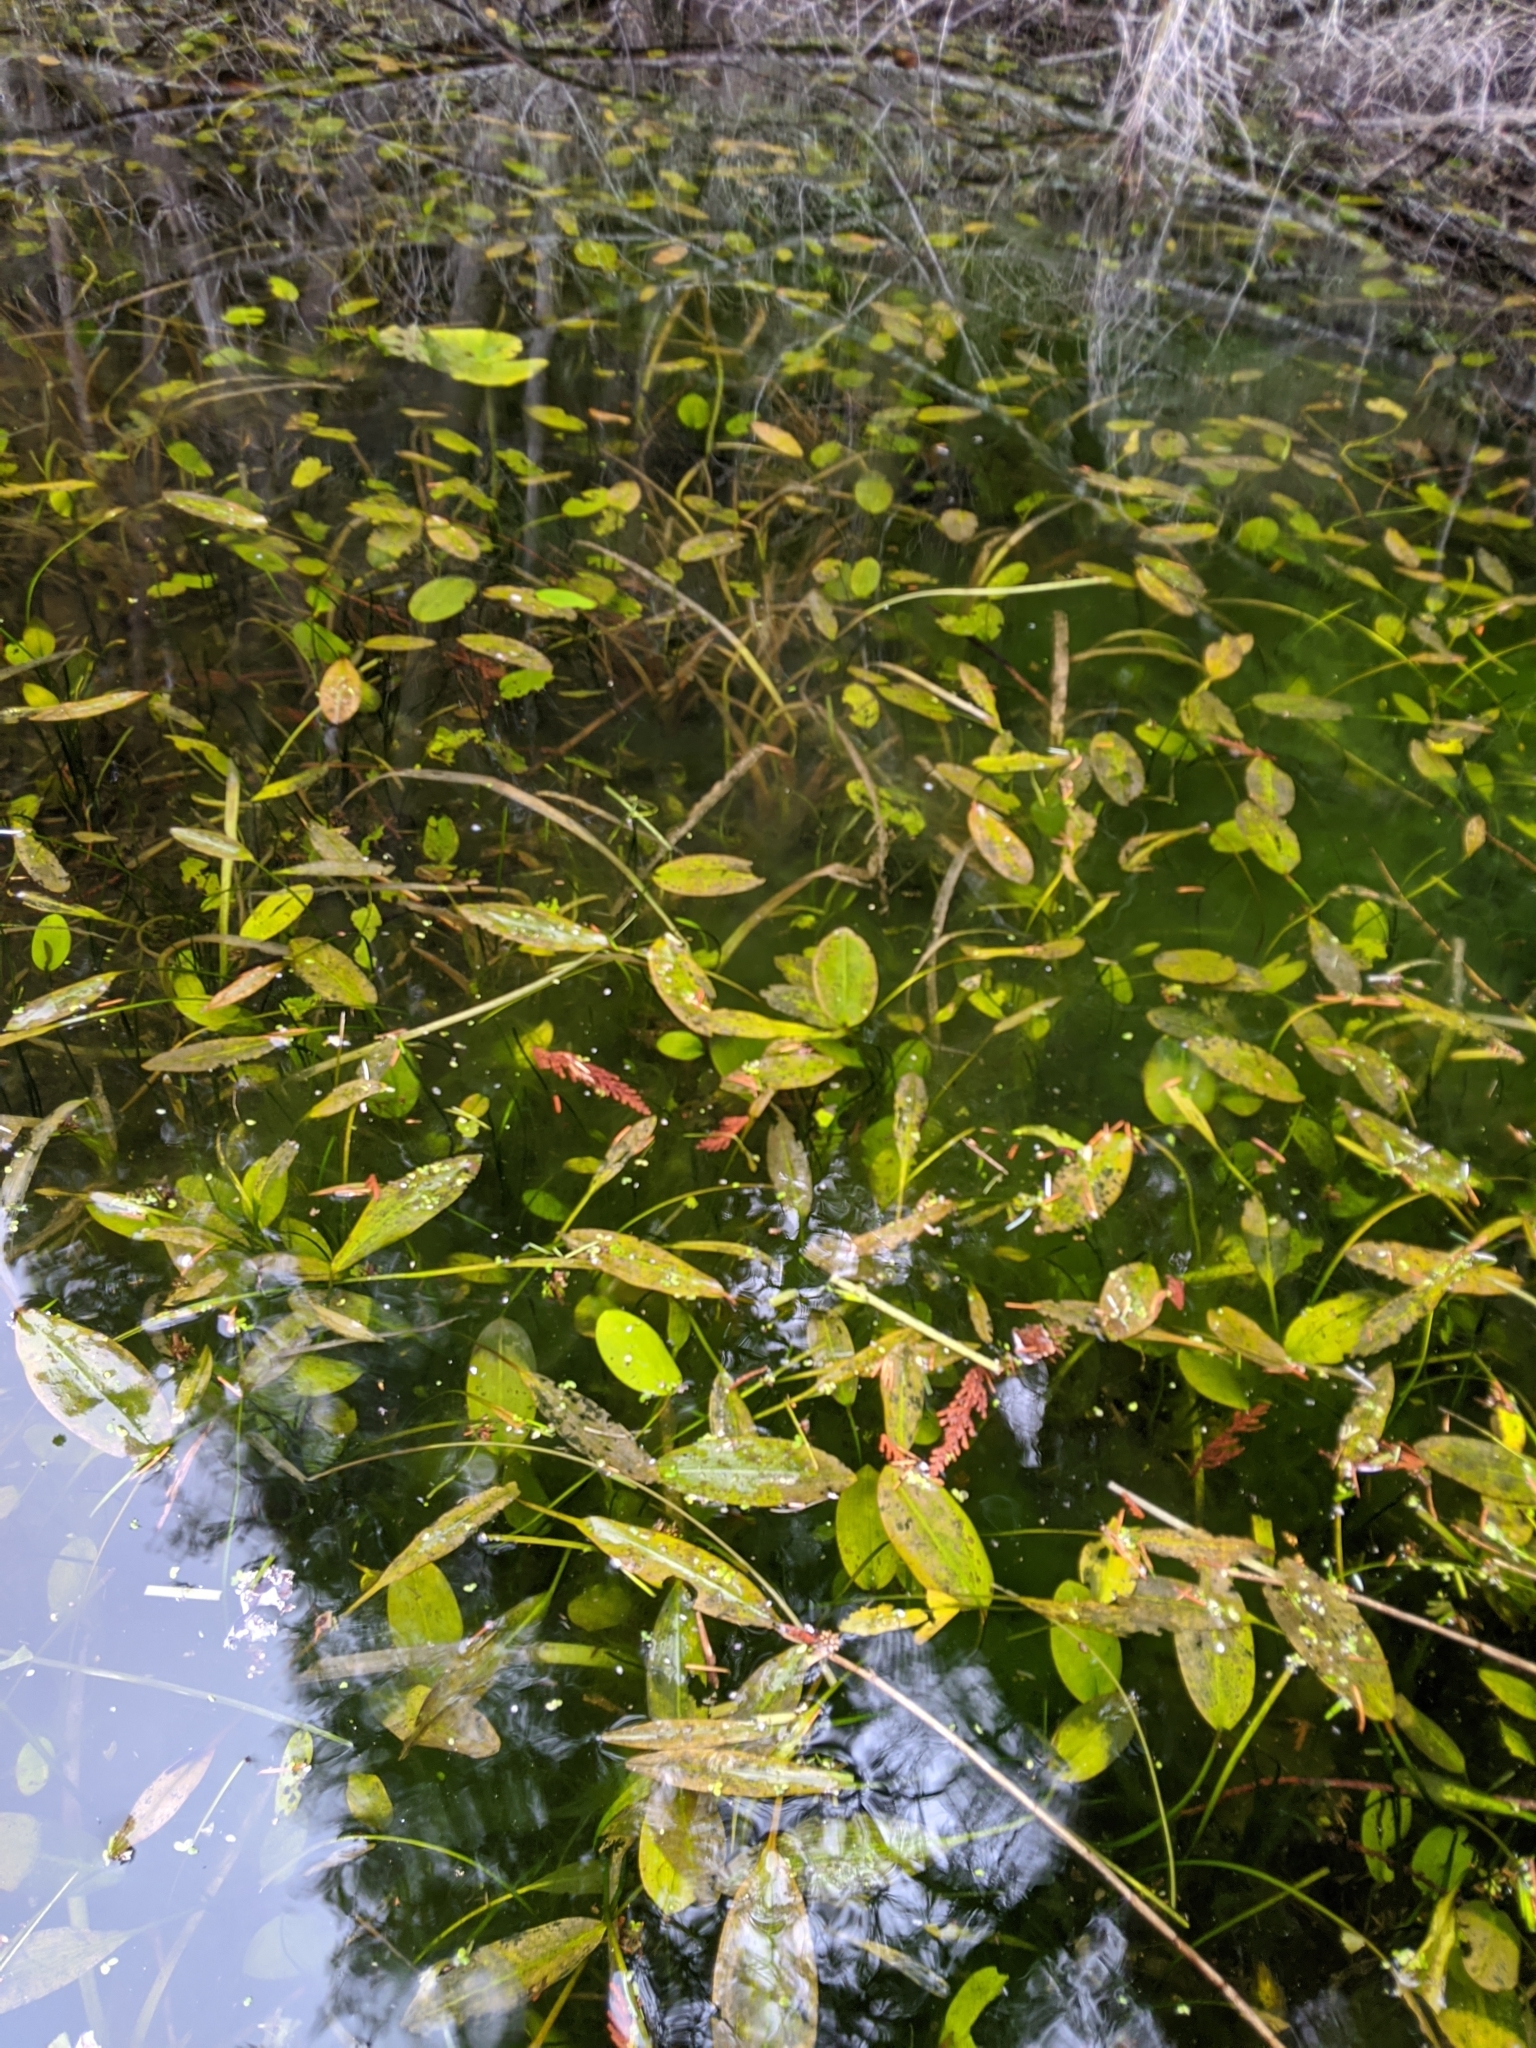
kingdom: Plantae
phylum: Tracheophyta
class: Liliopsida
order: Alismatales
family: Potamogetonaceae
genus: Potamogeton
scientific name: Potamogeton natans
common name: Broad-leaved pondweed
